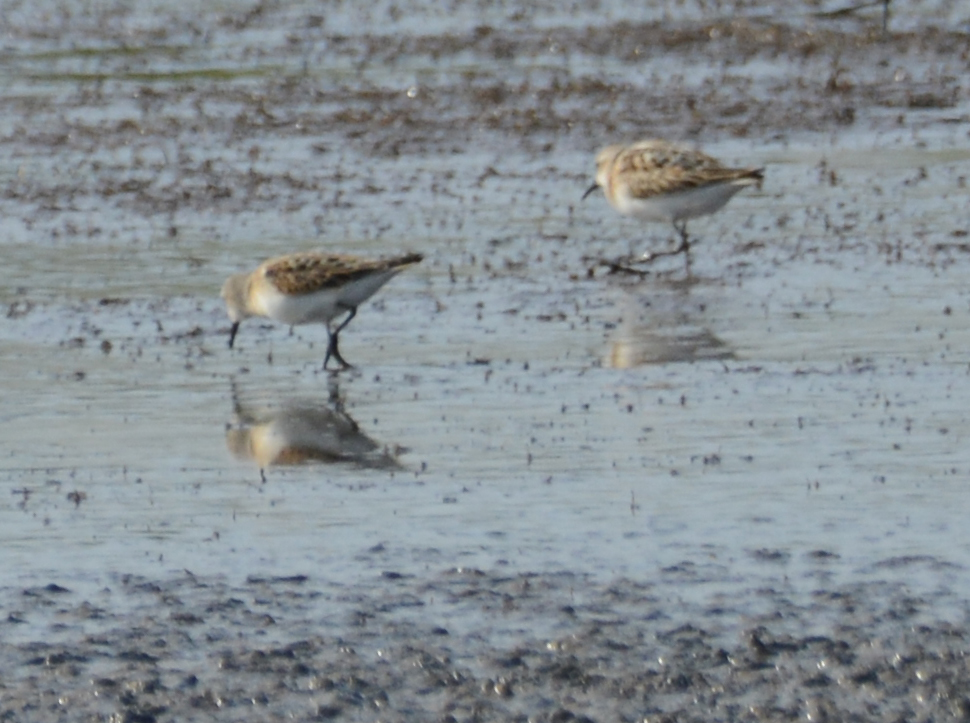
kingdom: Animalia
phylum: Chordata
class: Aves
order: Charadriiformes
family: Scolopacidae
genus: Calidris
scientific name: Calidris minuta
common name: Little stint
